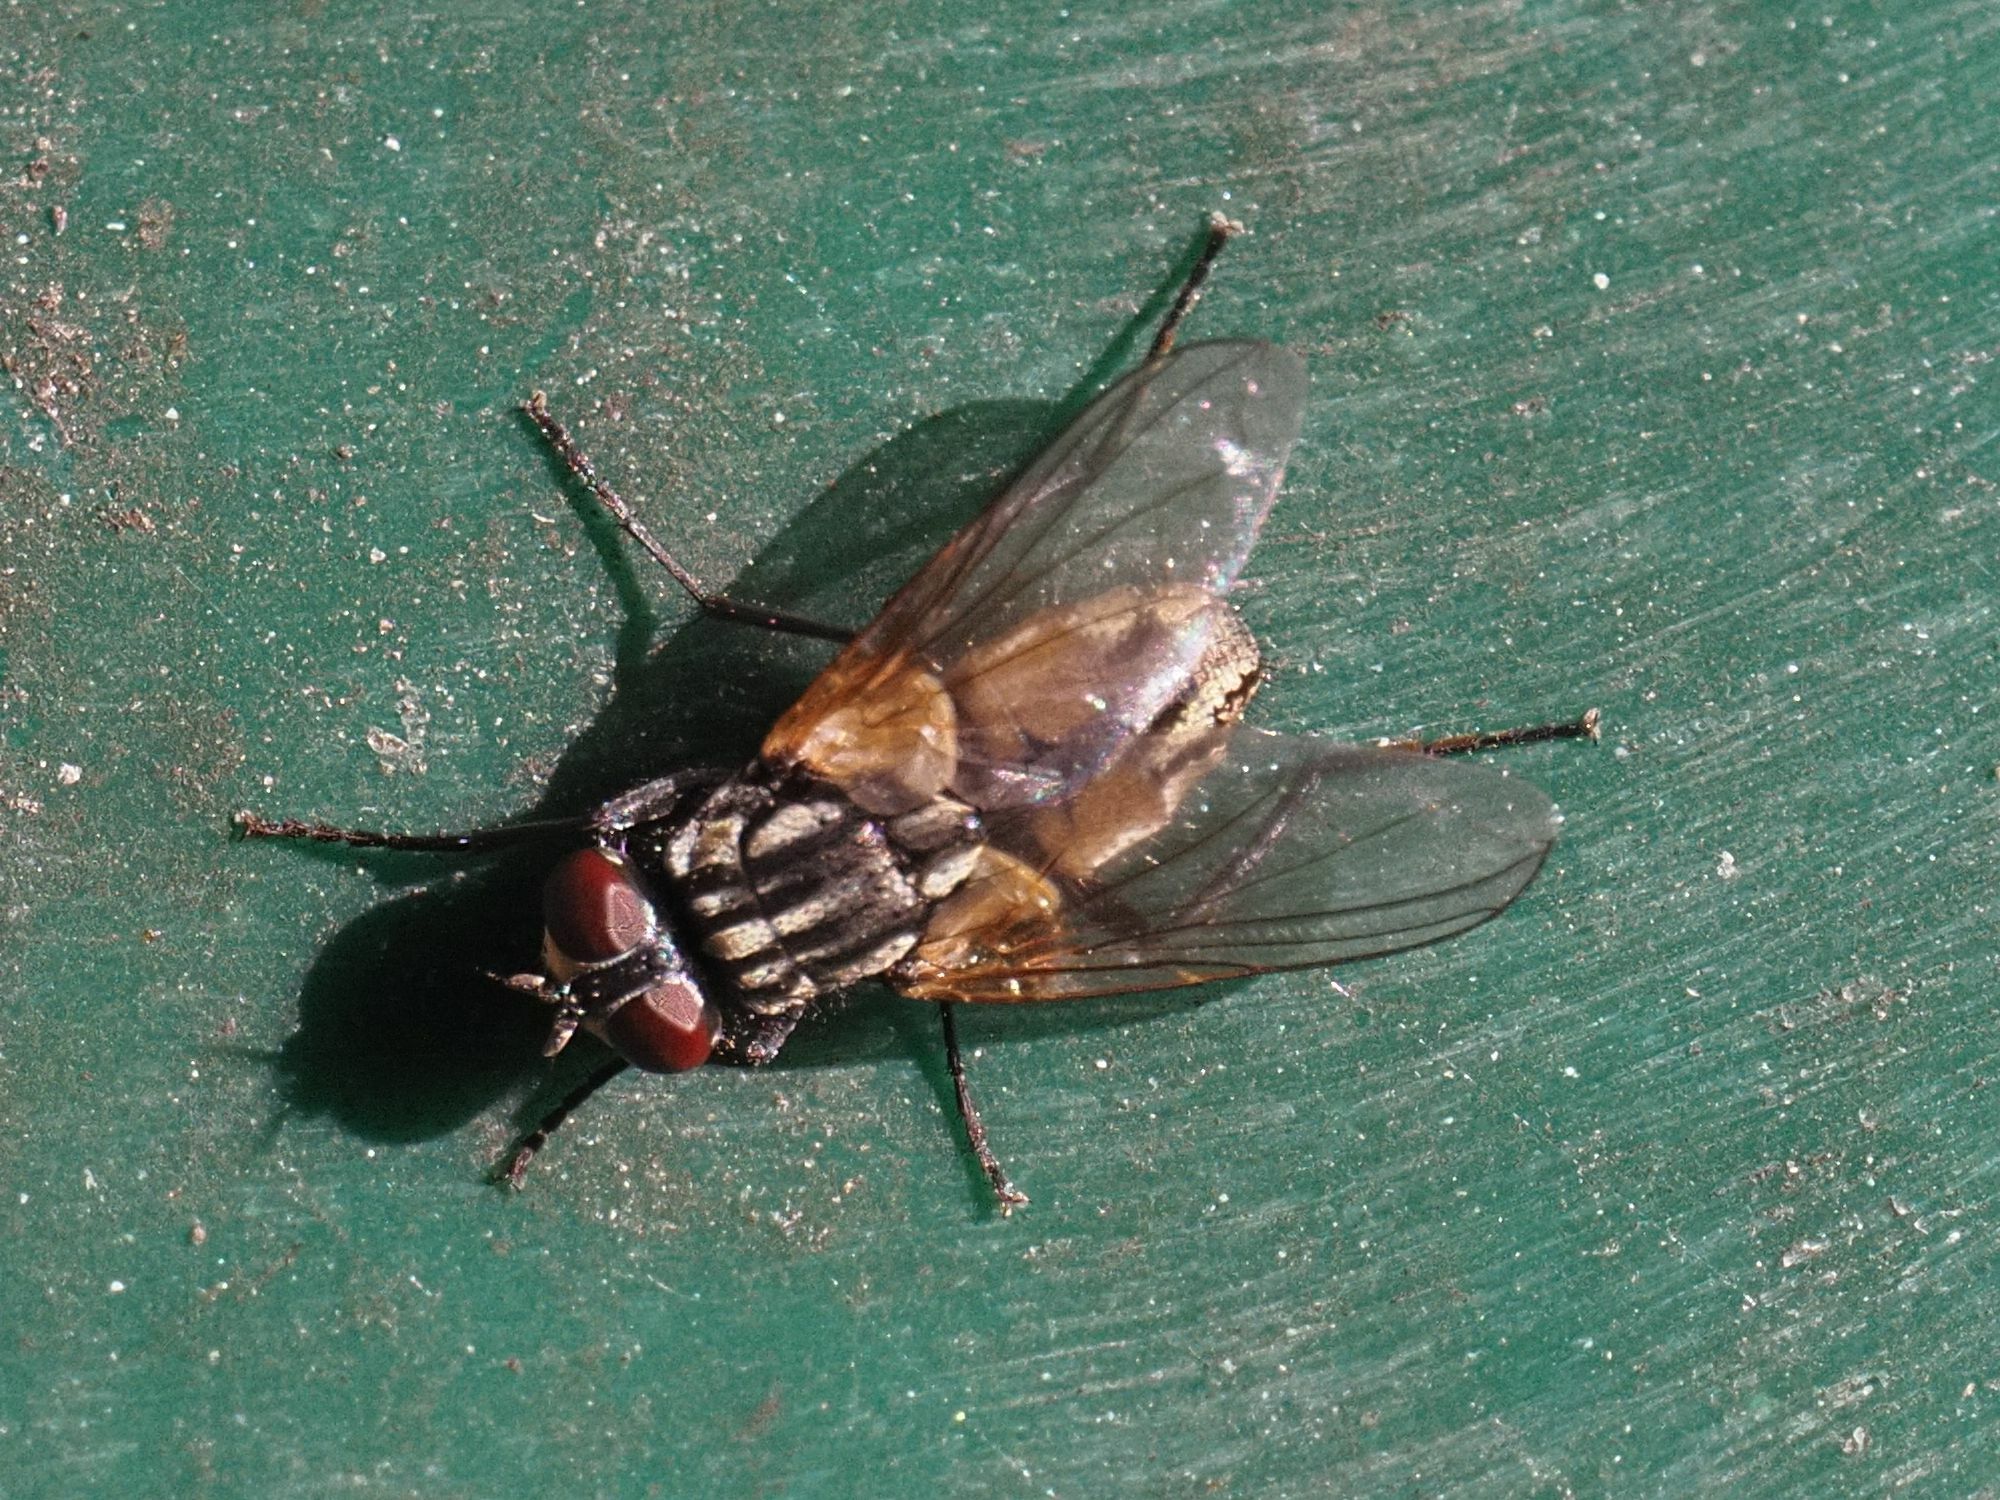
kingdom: Animalia
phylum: Arthropoda
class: Insecta
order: Diptera
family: Muscidae
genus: Musca
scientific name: Musca domestica
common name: House fly
